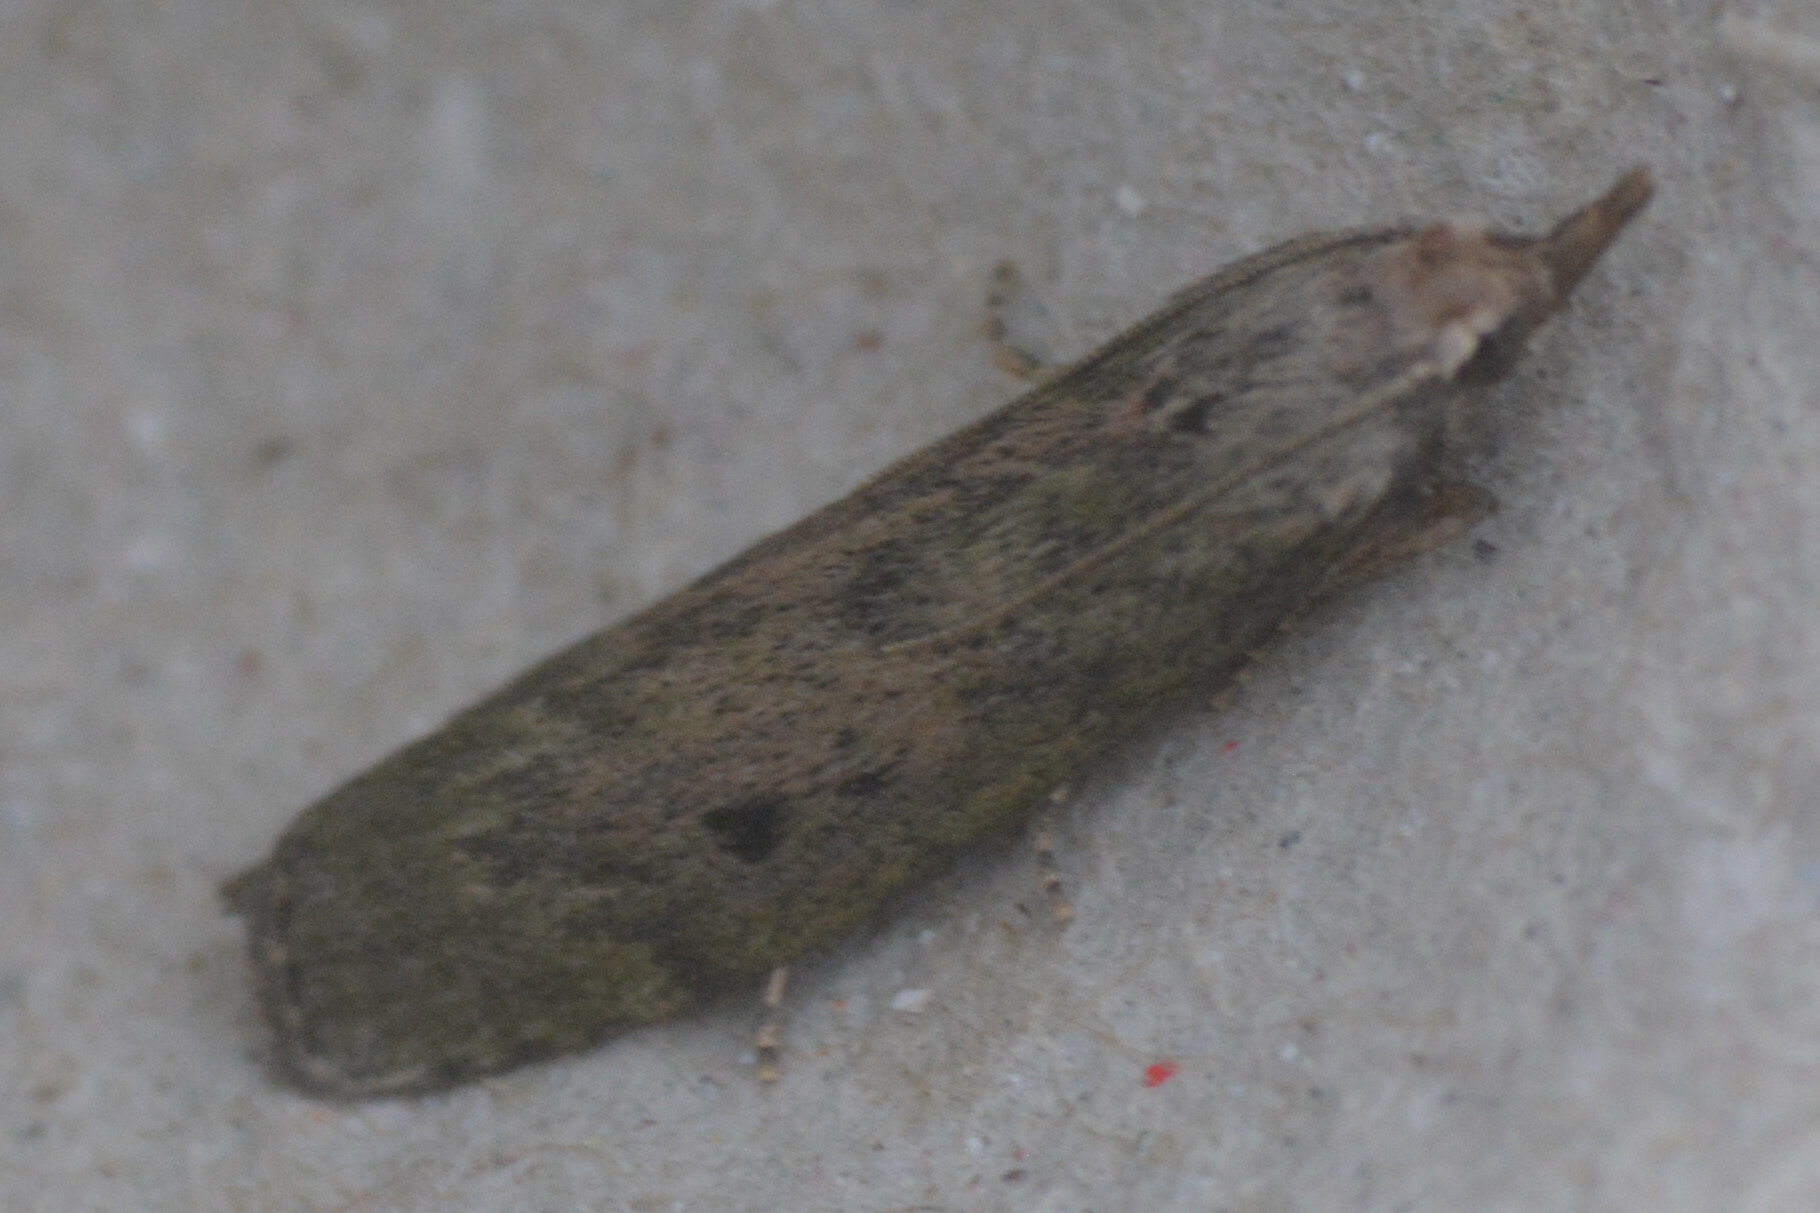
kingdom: Animalia
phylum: Arthropoda
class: Insecta
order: Lepidoptera
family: Pyralidae
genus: Aphomia
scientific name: Aphomia sociella
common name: Bee moth
